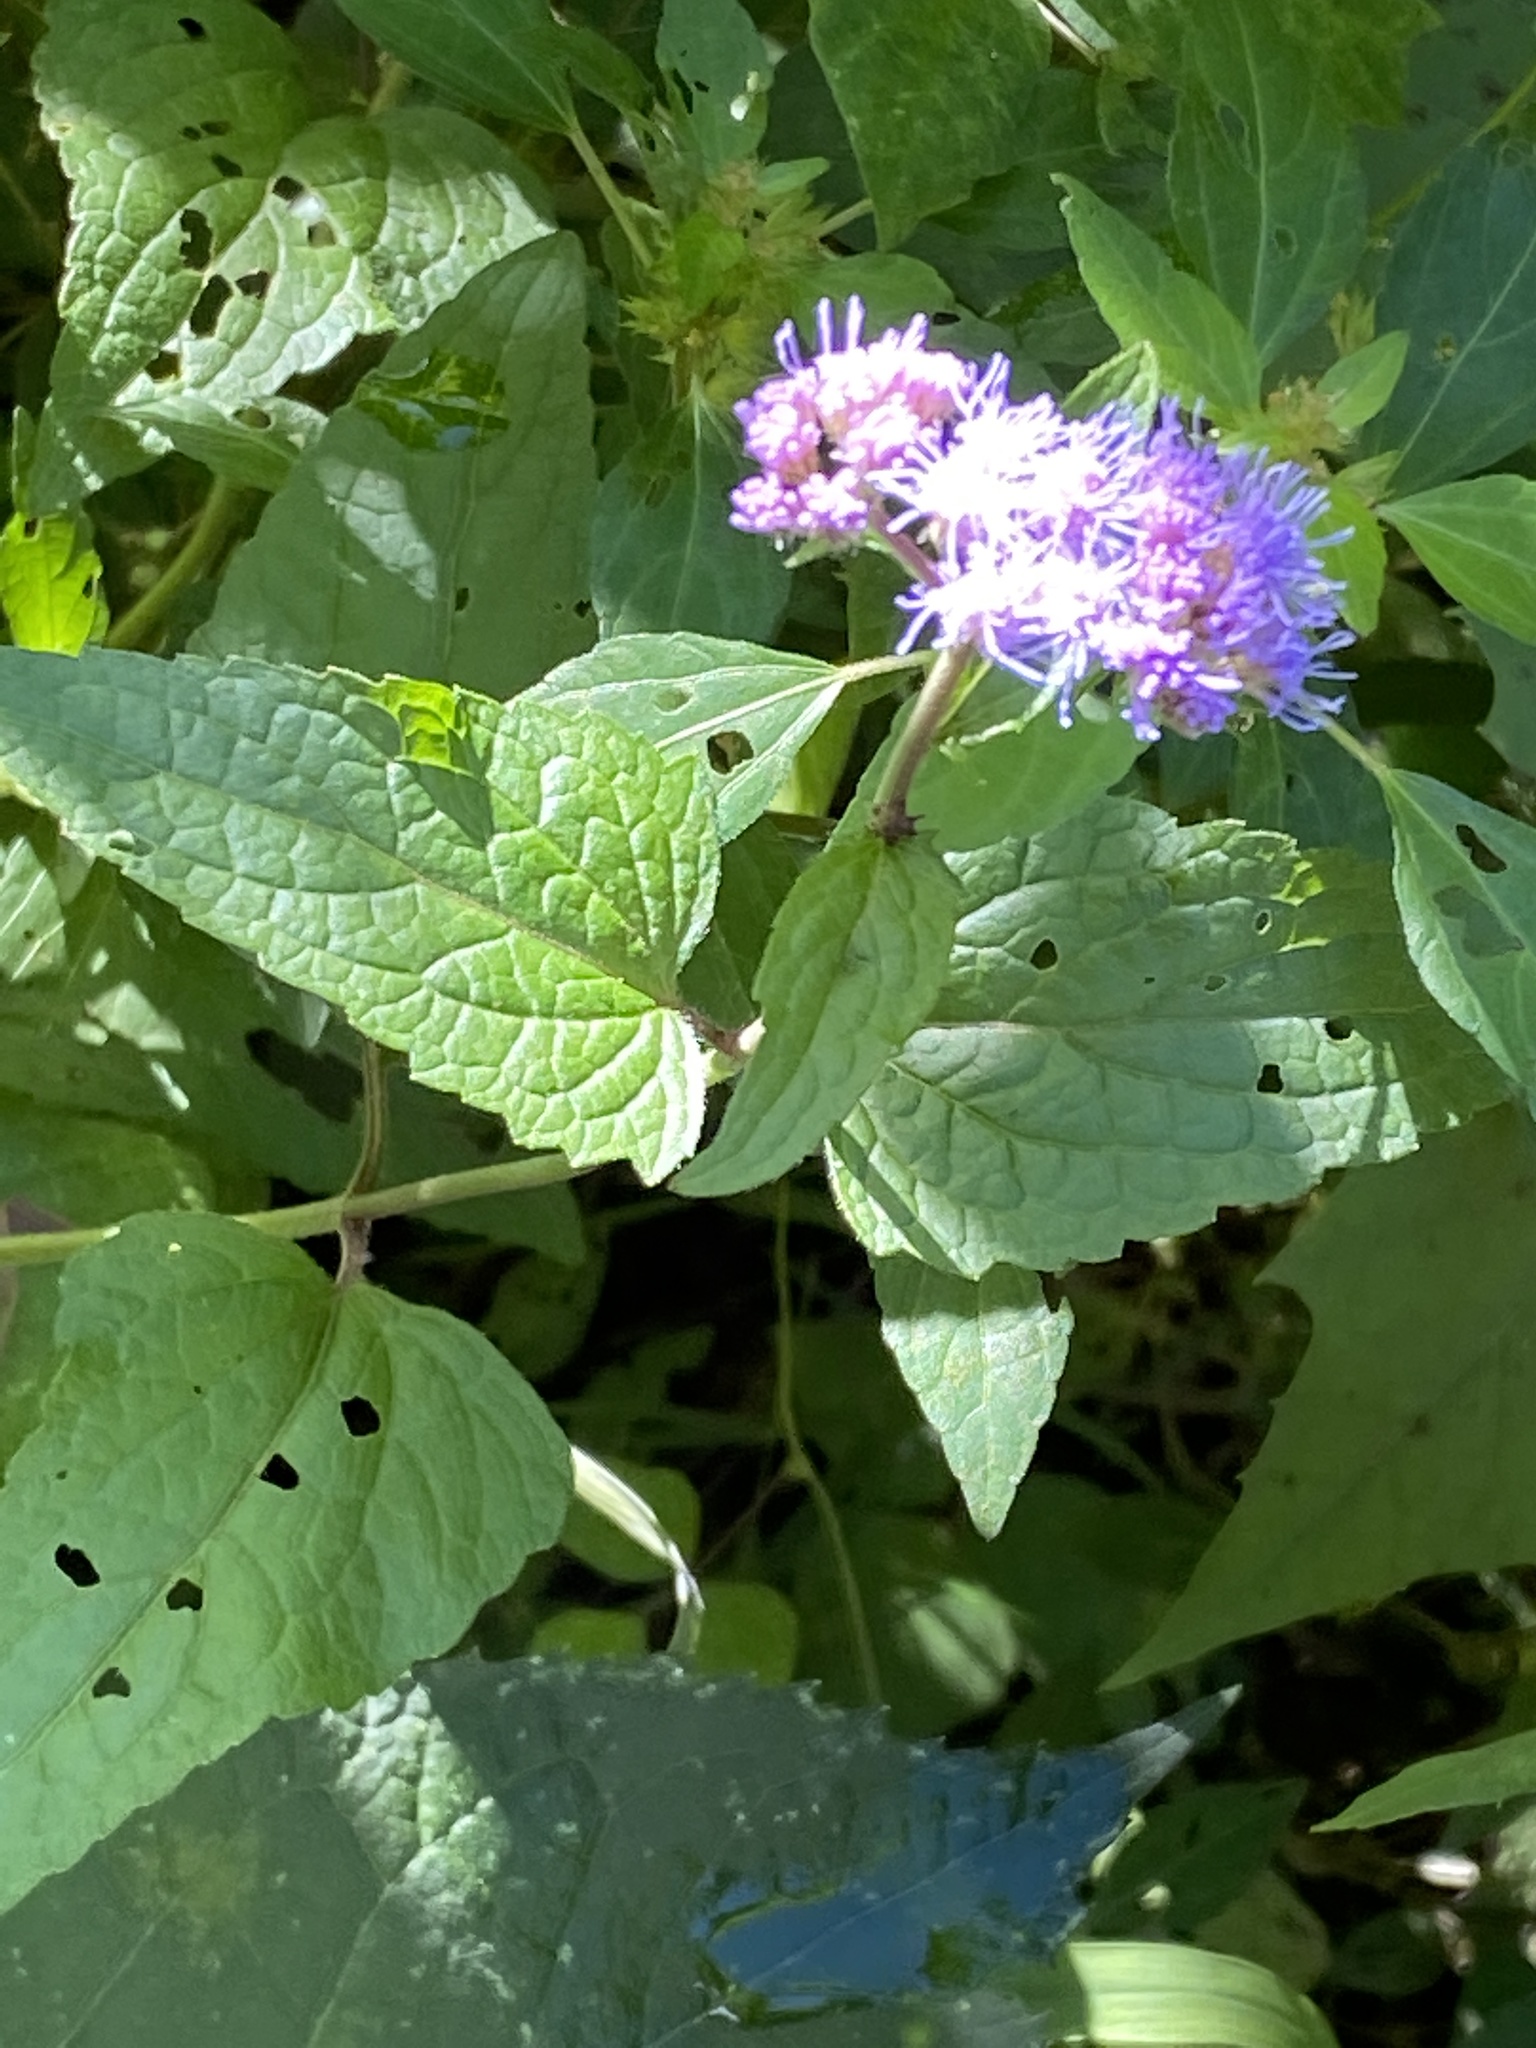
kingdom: Plantae
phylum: Tracheophyta
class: Magnoliopsida
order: Asterales
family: Asteraceae
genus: Conoclinium
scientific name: Conoclinium coelestinum
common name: Blue mistflower
